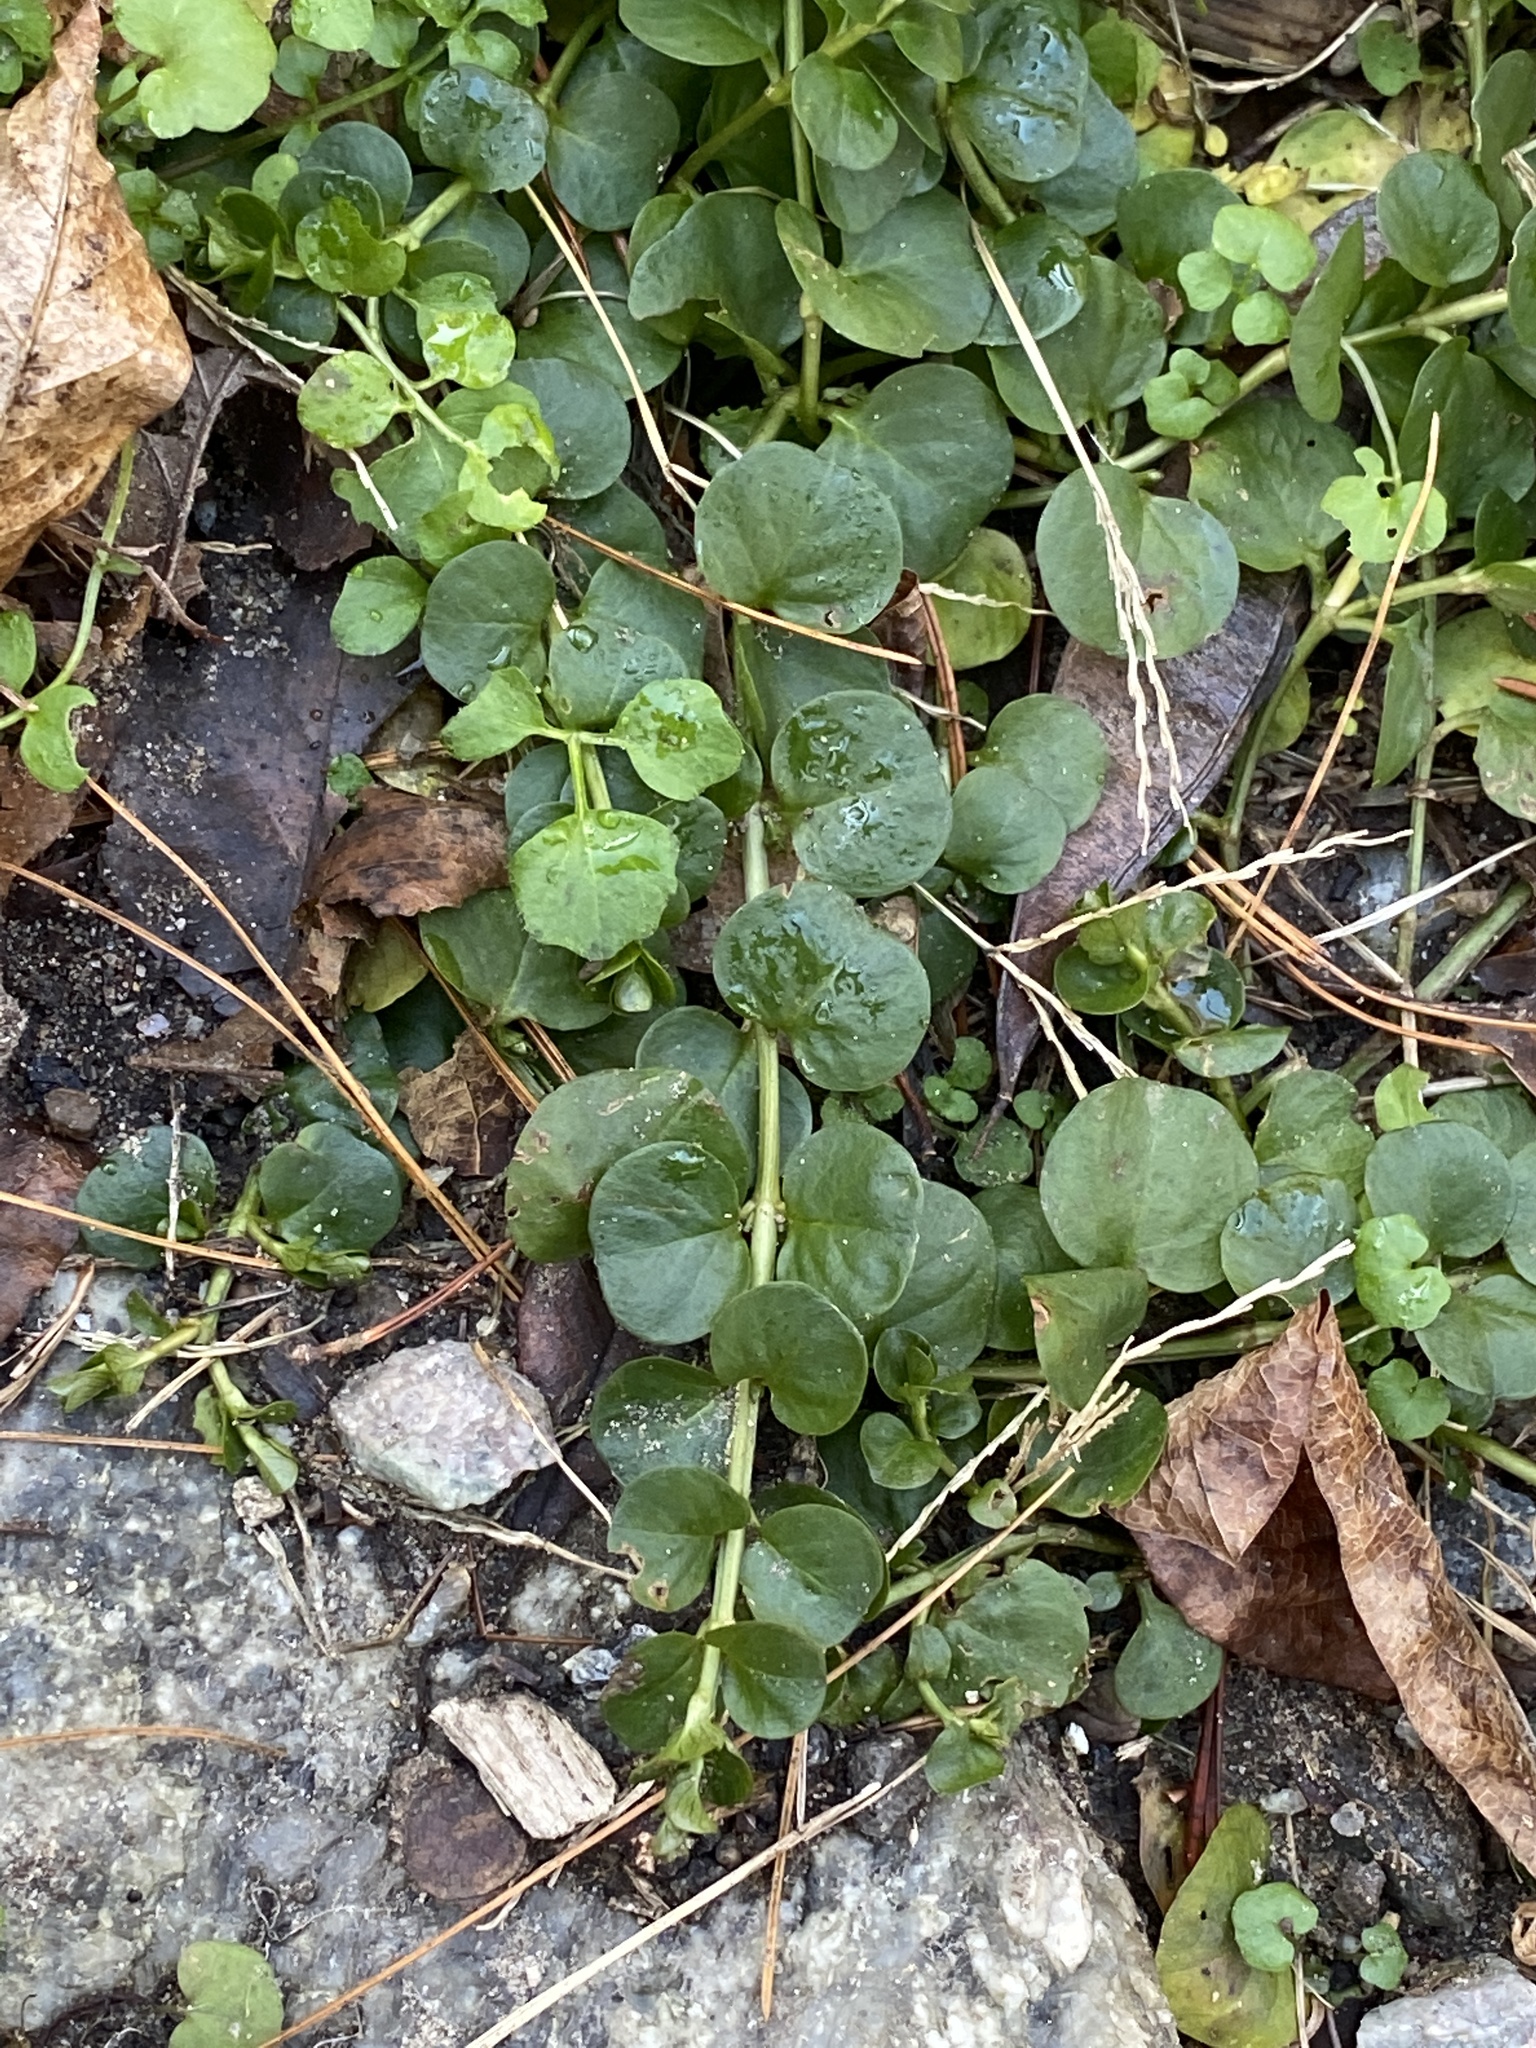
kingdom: Plantae
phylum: Tracheophyta
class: Magnoliopsida
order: Ericales
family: Primulaceae
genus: Lysimachia
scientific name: Lysimachia nummularia
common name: Moneywort
